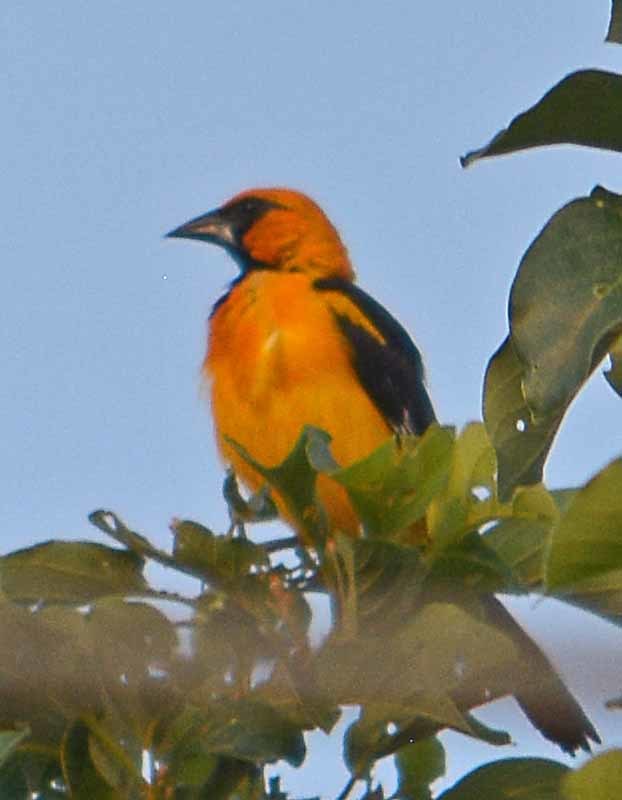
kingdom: Animalia
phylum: Chordata
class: Aves
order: Passeriformes
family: Icteridae
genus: Icterus
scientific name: Icterus gularis
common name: Altamira oriole
